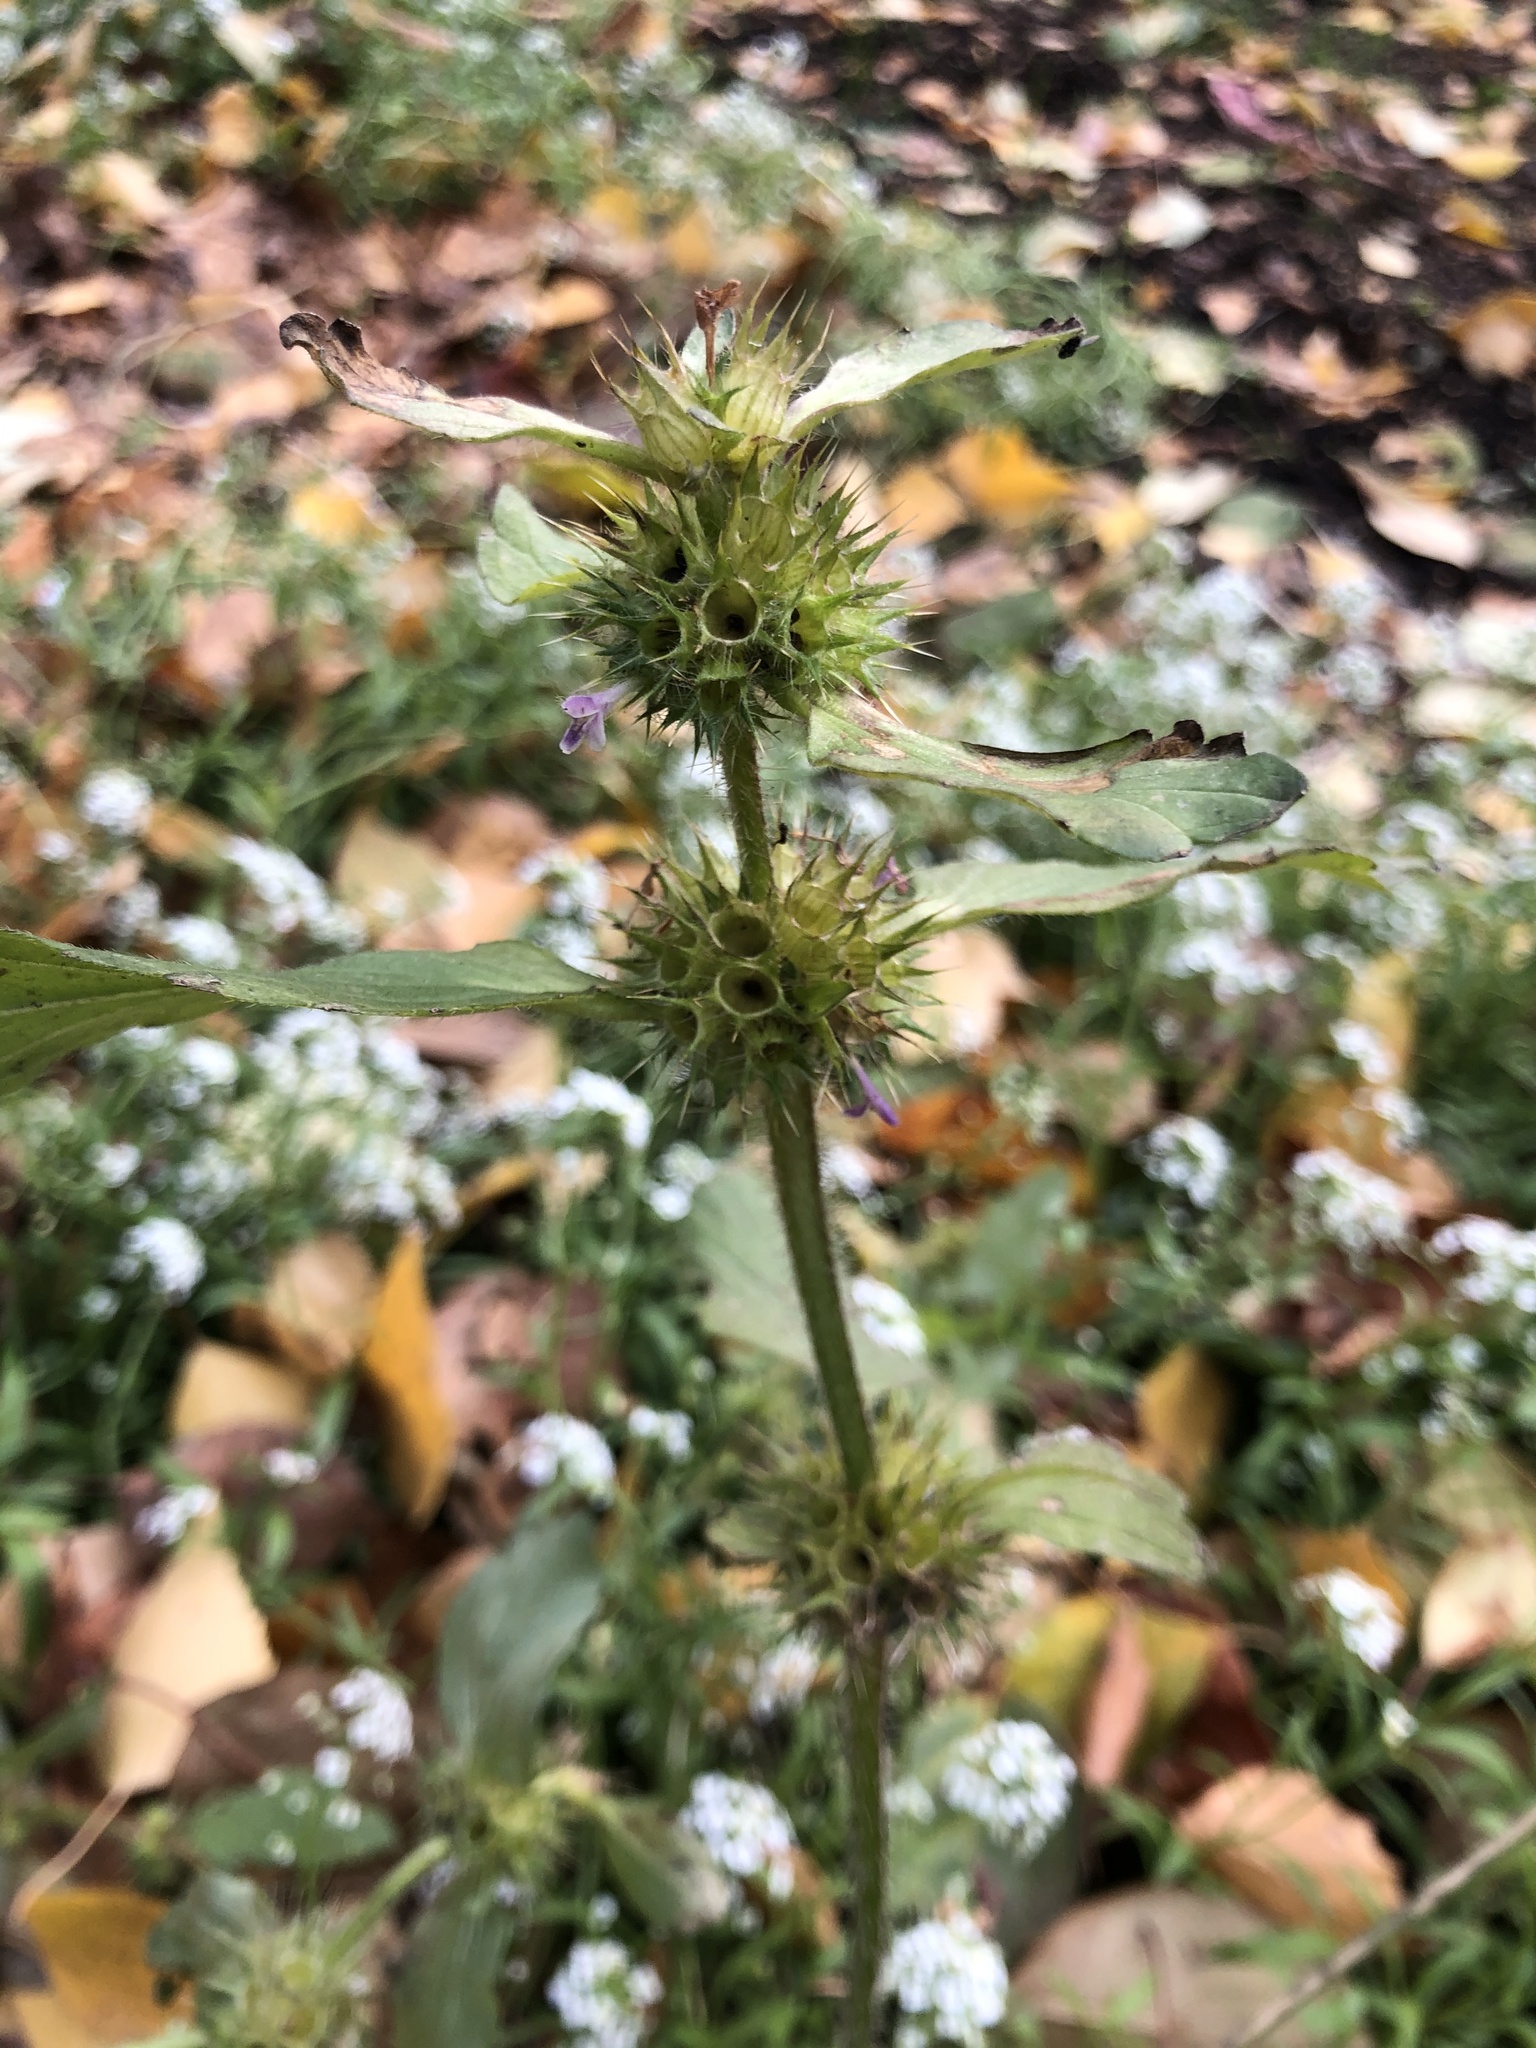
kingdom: Plantae
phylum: Tracheophyta
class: Magnoliopsida
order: Lamiales
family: Lamiaceae
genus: Galeopsis
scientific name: Galeopsis bifida
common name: Bifid hemp-nettle
